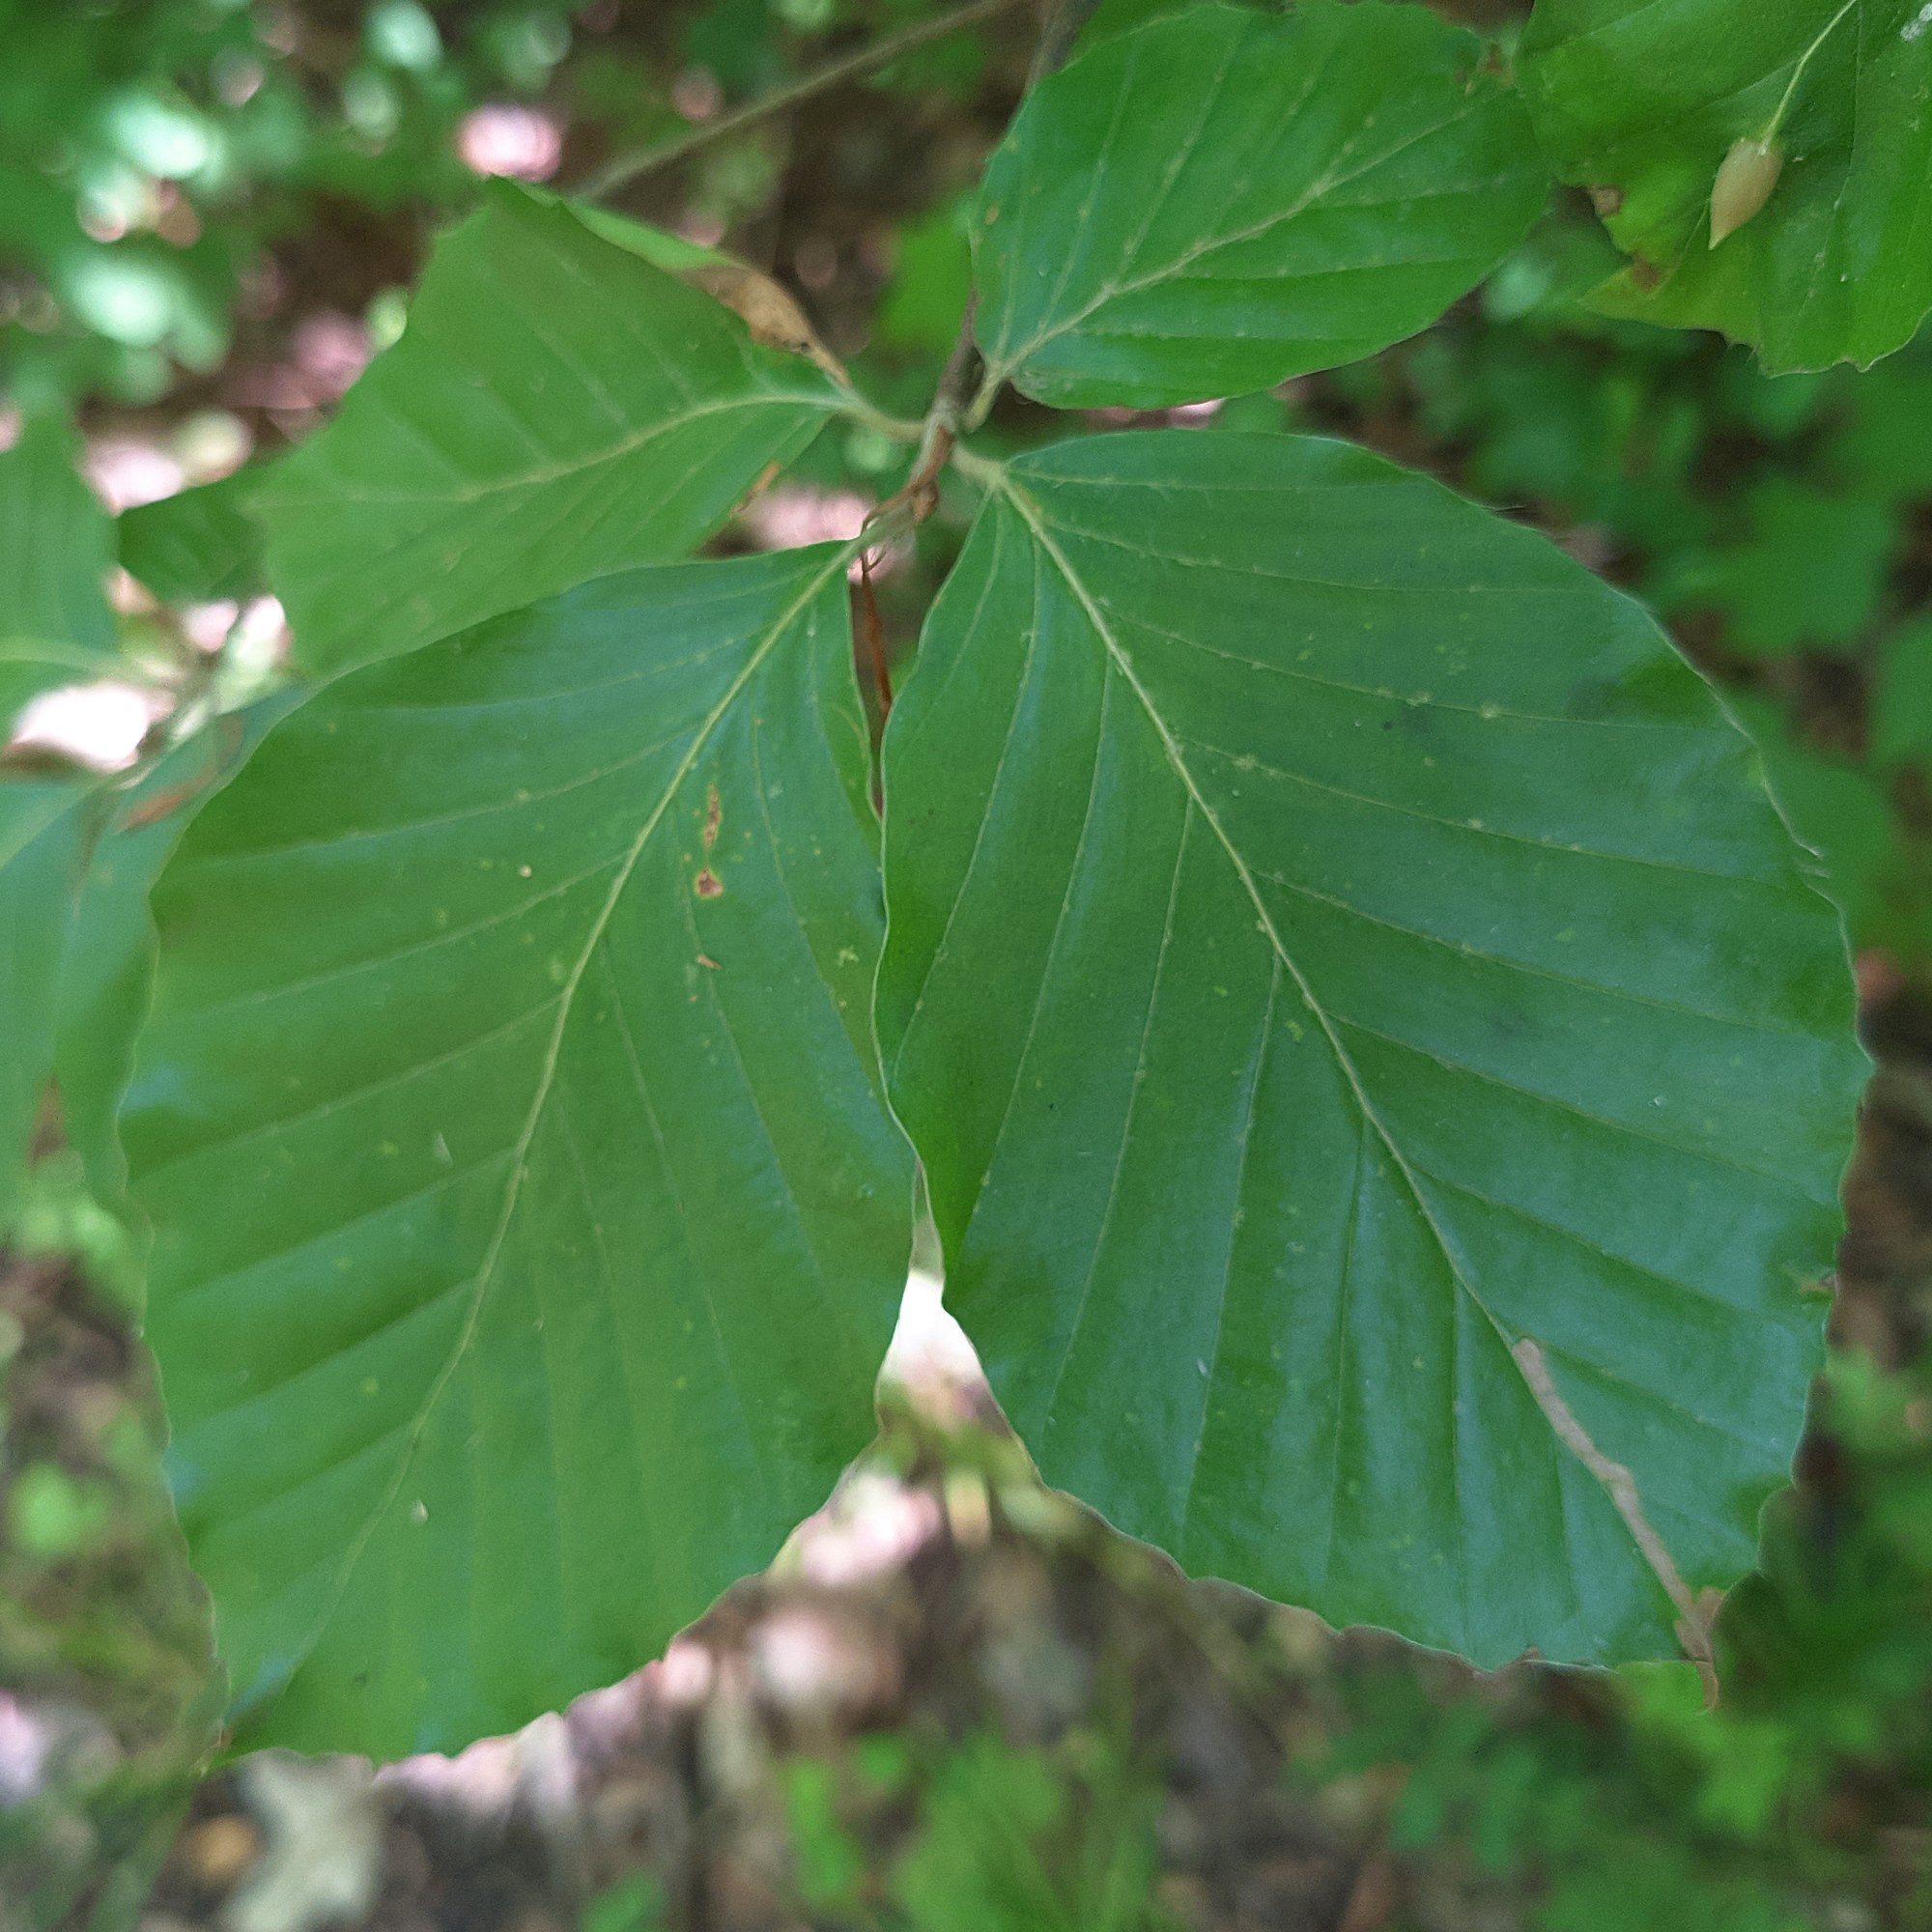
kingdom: Plantae
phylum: Tracheophyta
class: Magnoliopsida
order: Fagales
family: Fagaceae
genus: Fagus
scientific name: Fagus sylvatica
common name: Beech
